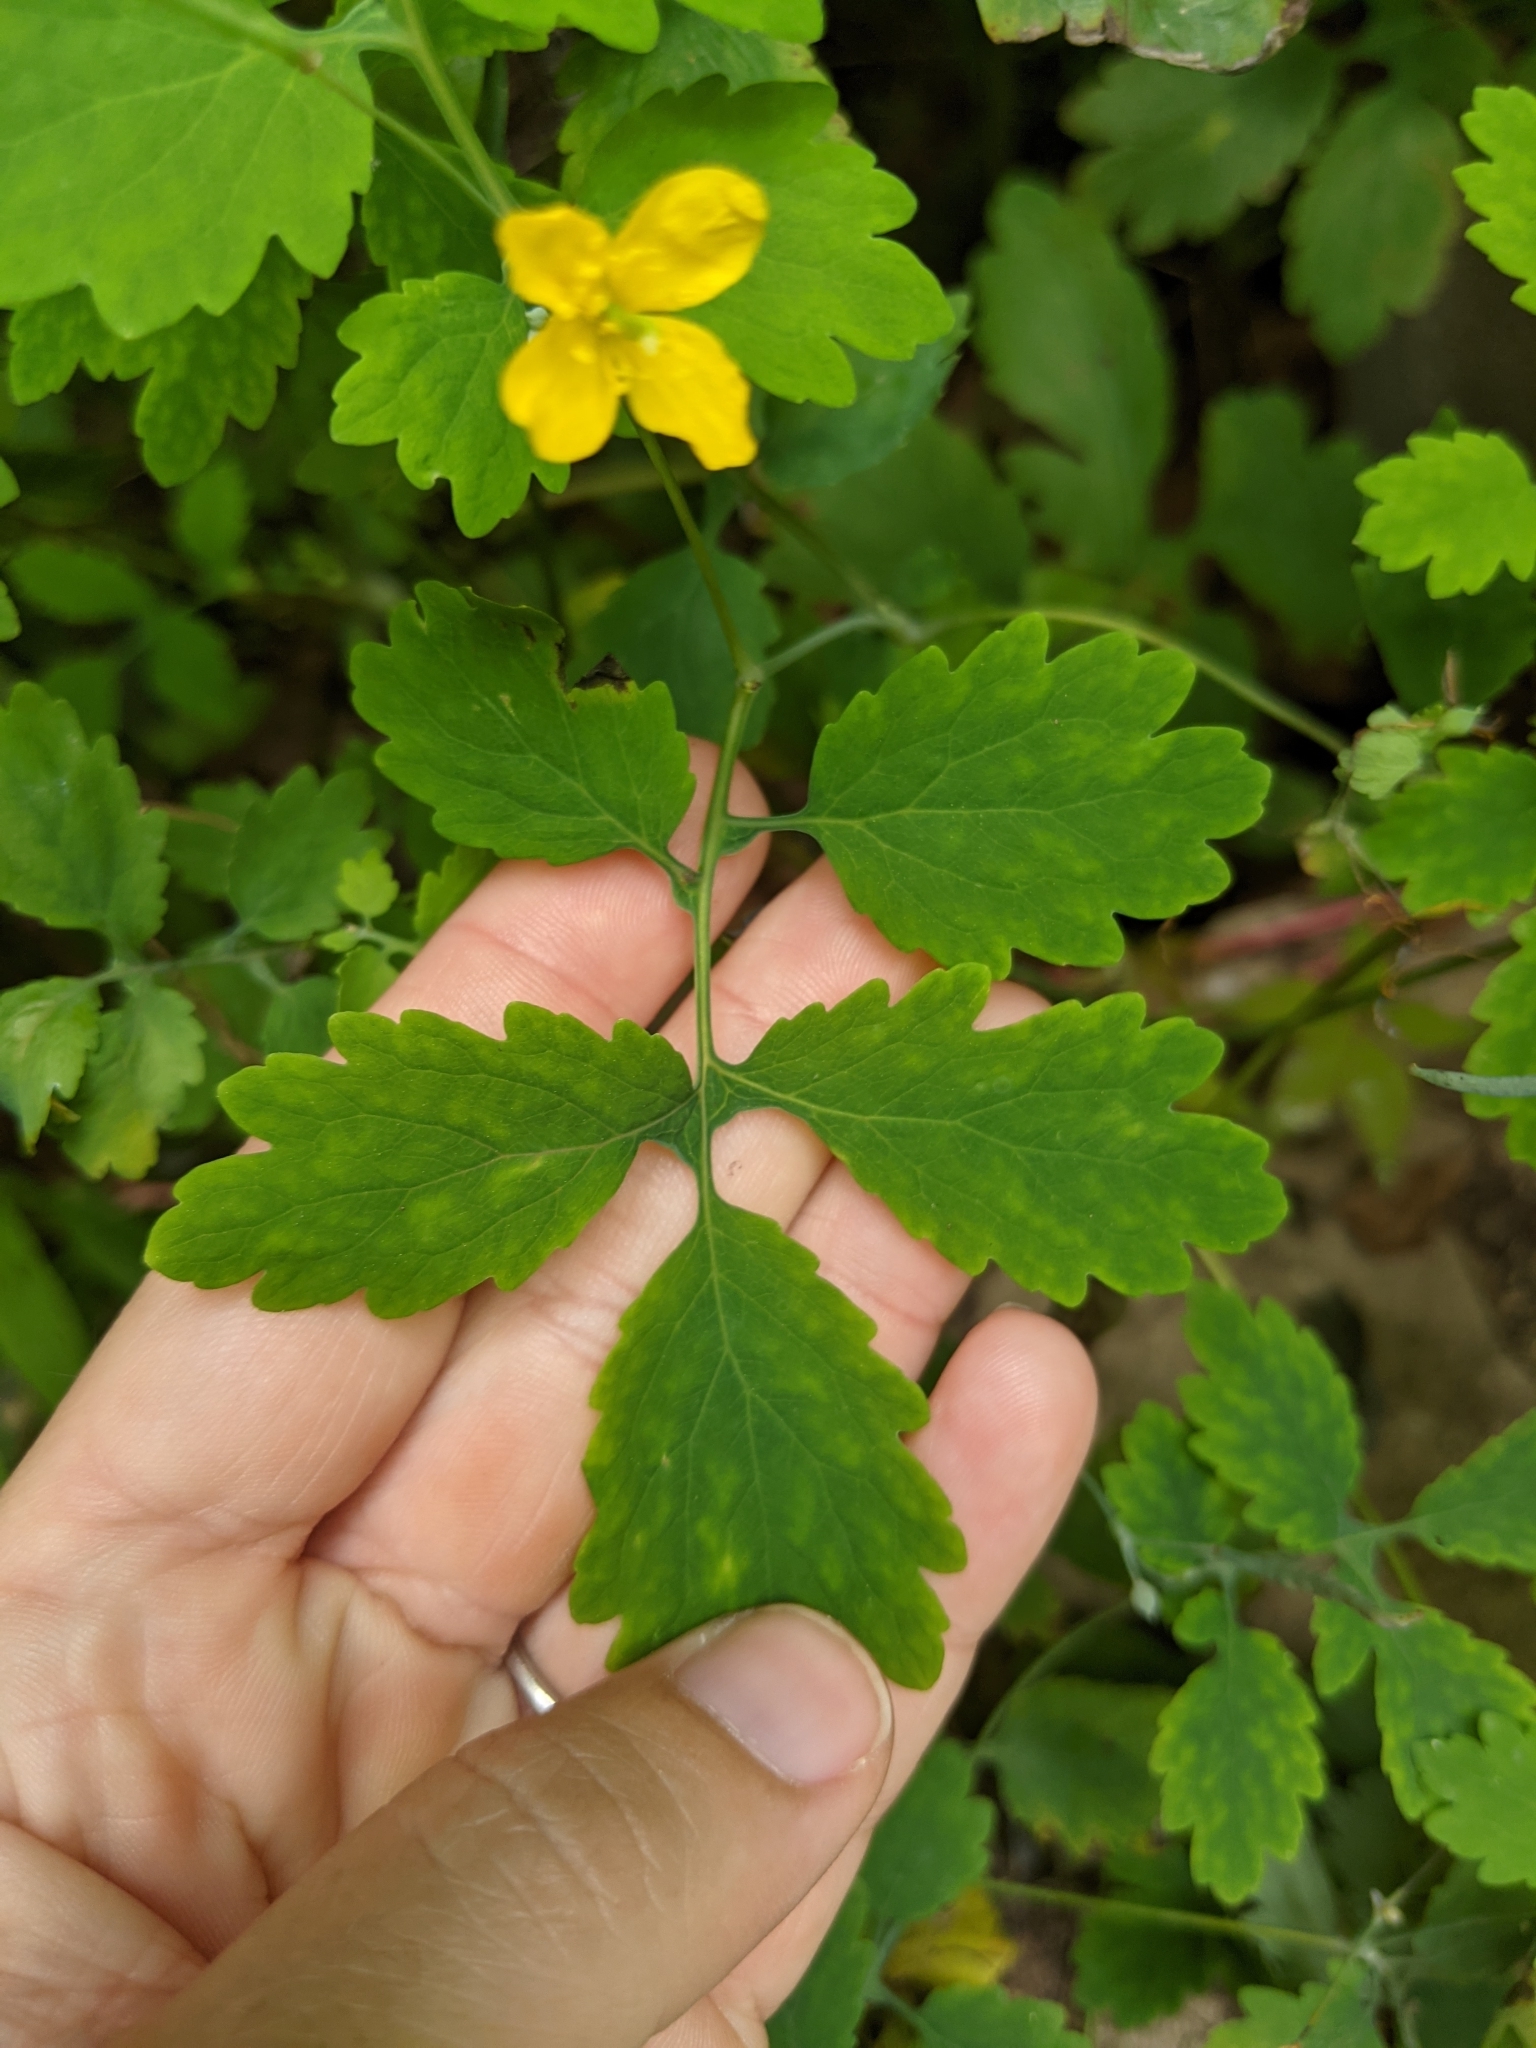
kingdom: Plantae
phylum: Tracheophyta
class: Magnoliopsida
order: Ranunculales
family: Papaveraceae
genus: Chelidonium
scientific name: Chelidonium majus
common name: Greater celandine
